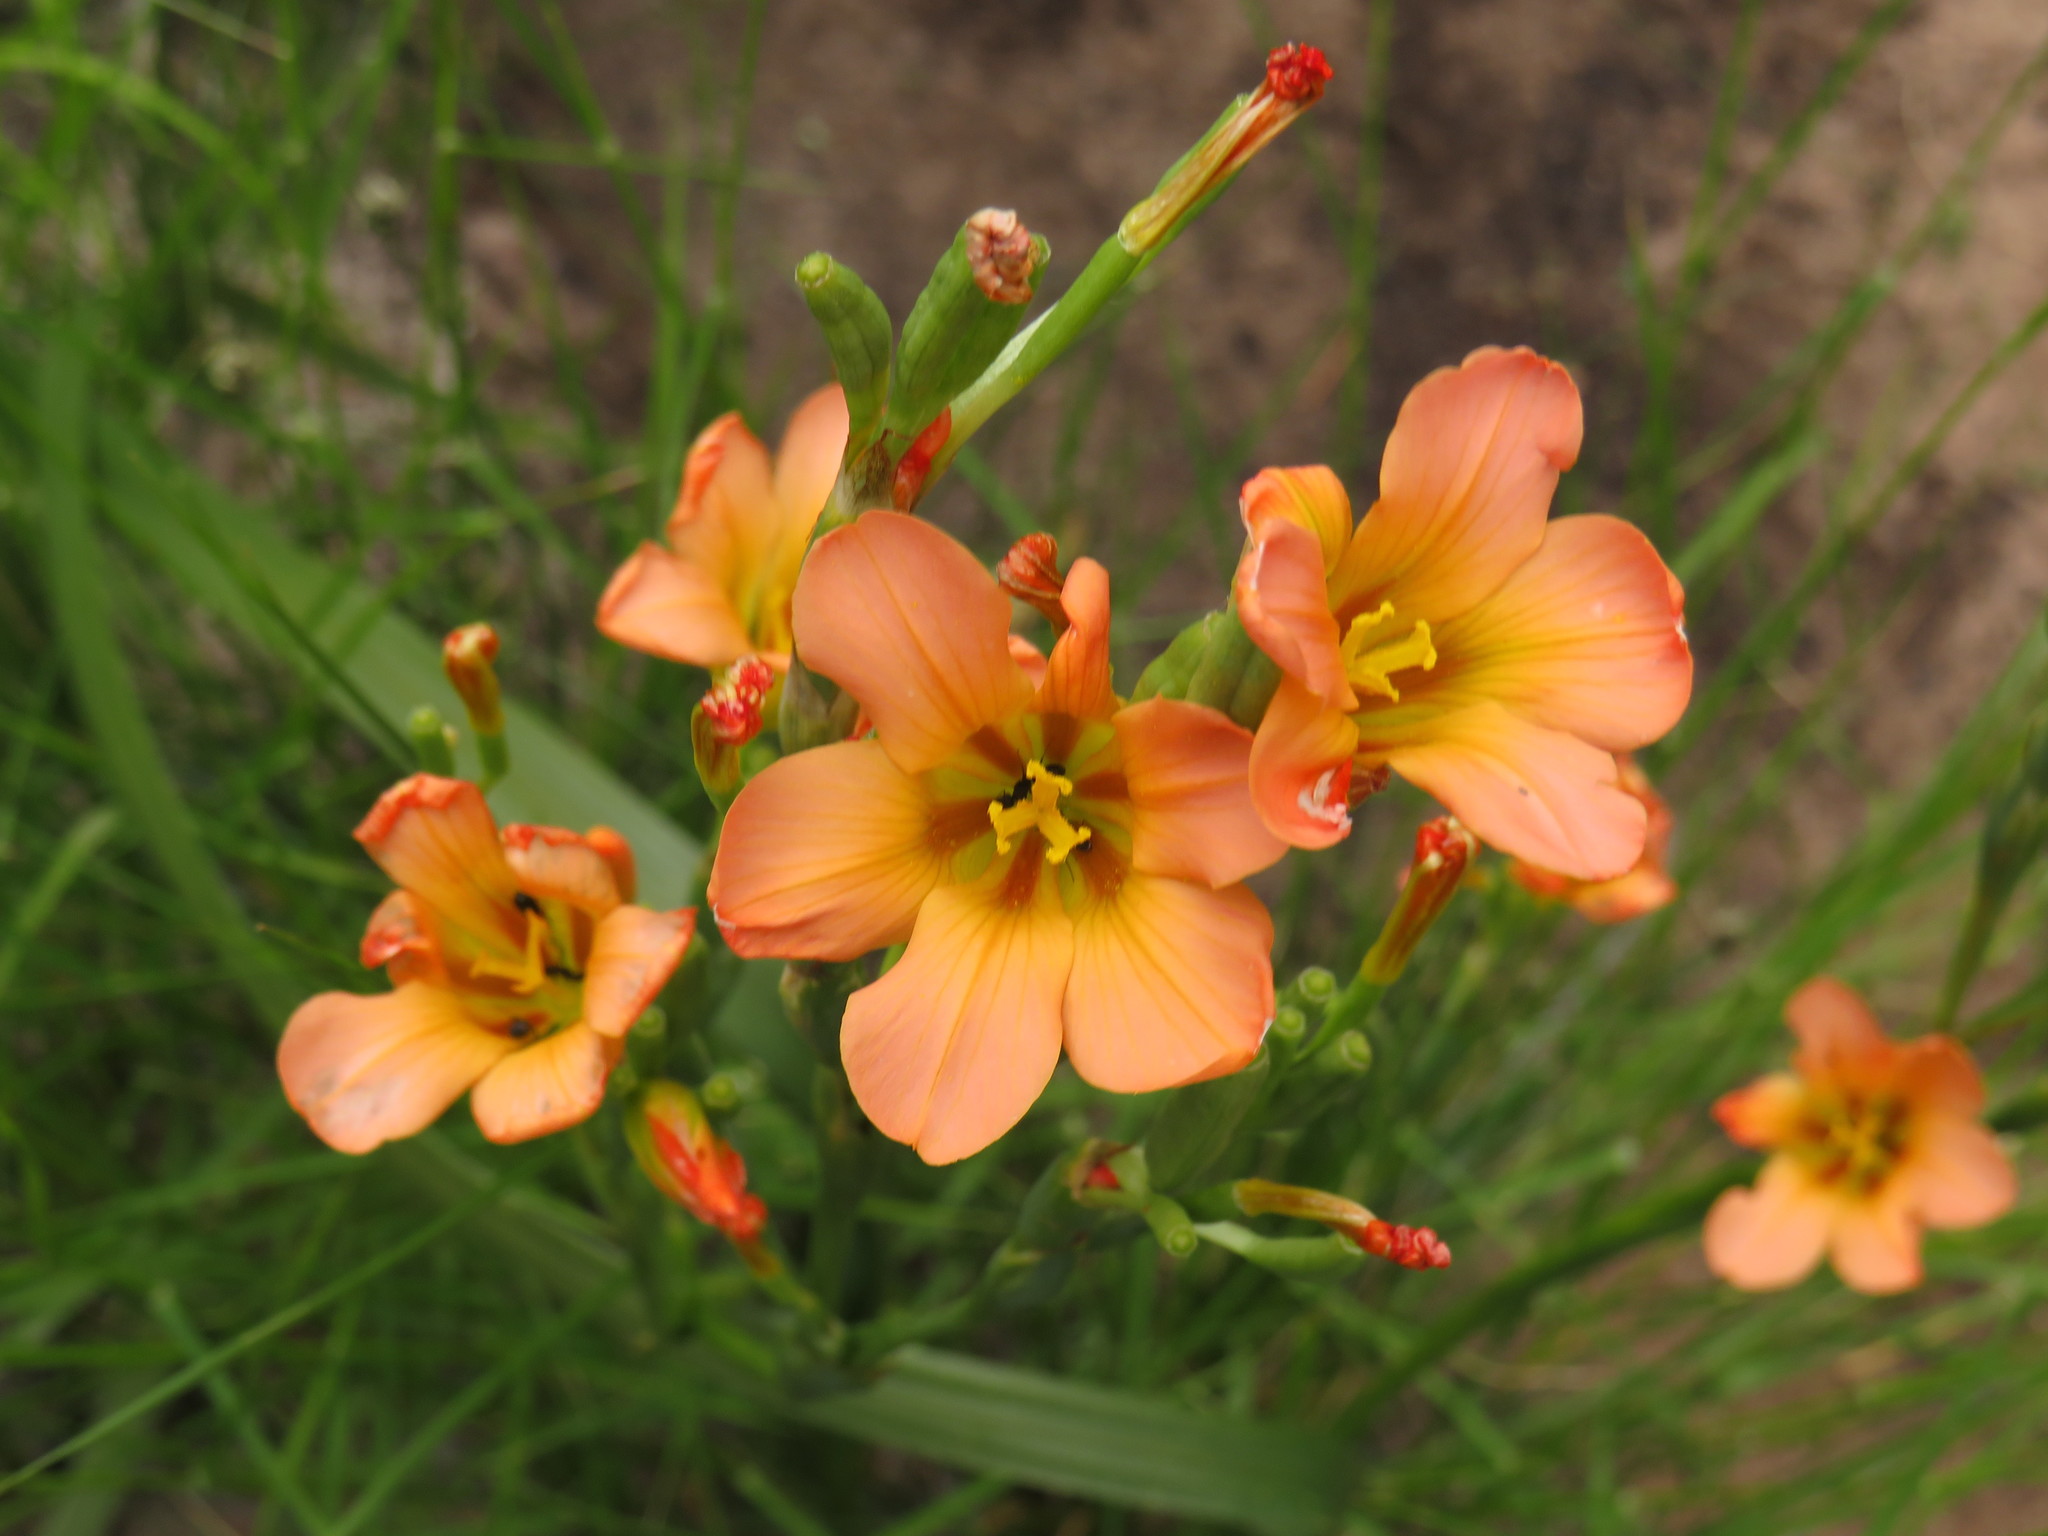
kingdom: Plantae
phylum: Tracheophyta
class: Liliopsida
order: Asparagales
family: Iridaceae
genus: Moraea
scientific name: Moraea ochroleuca
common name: Red tulp
